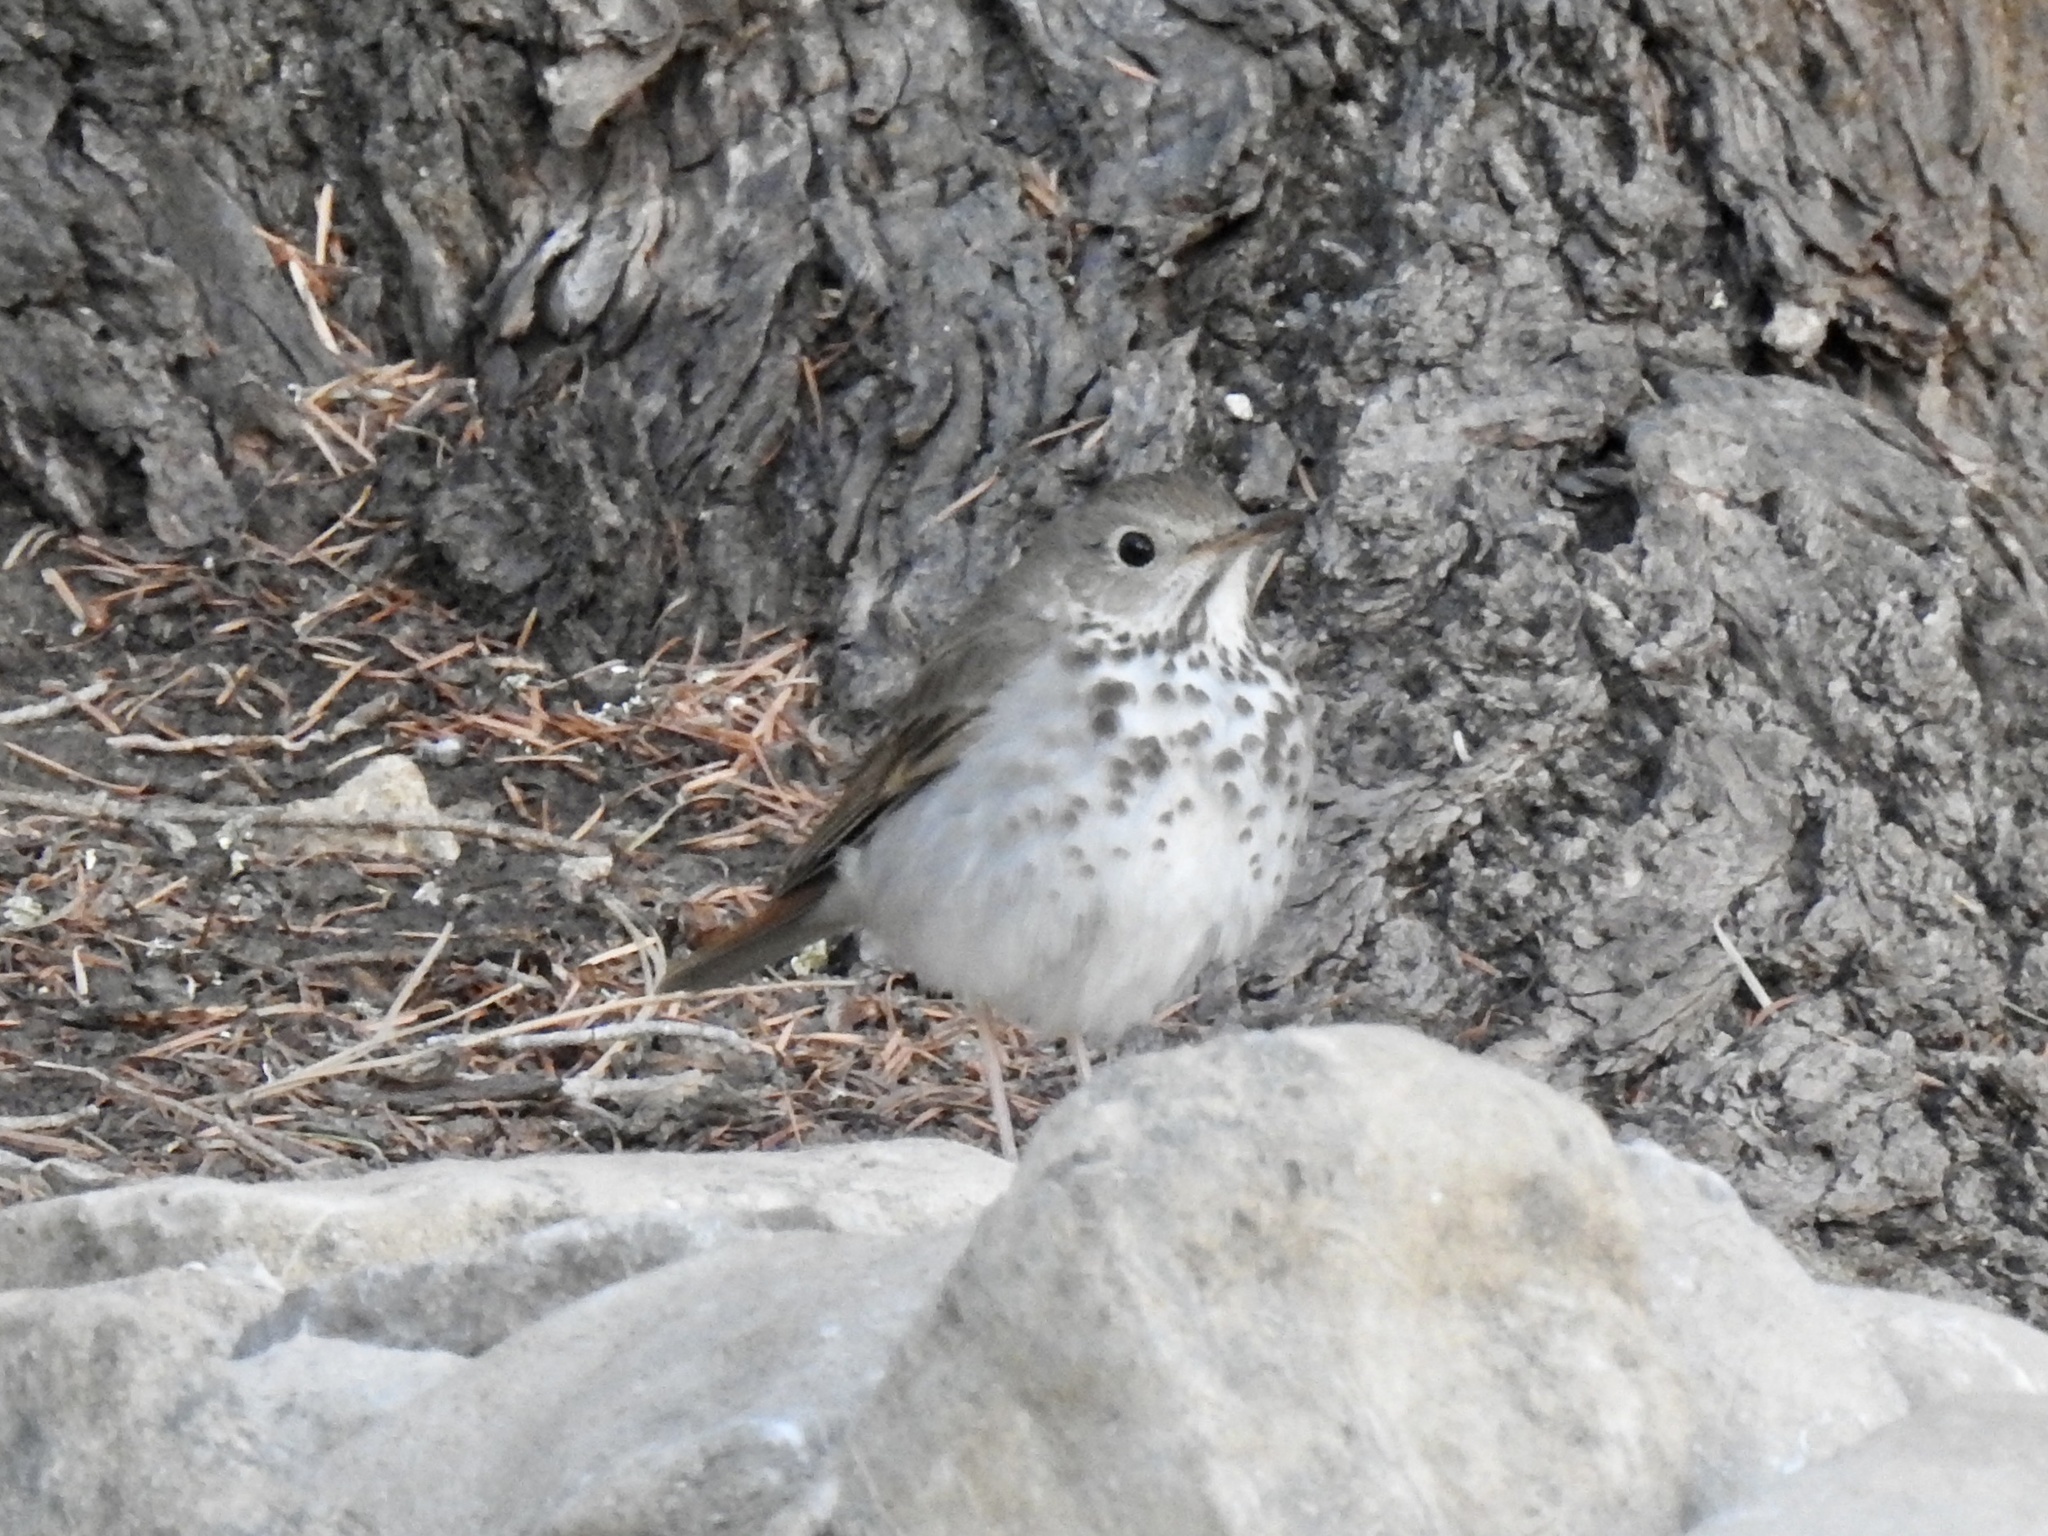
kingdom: Animalia
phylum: Chordata
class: Aves
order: Passeriformes
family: Turdidae
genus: Catharus
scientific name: Catharus guttatus
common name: Hermit thrush
